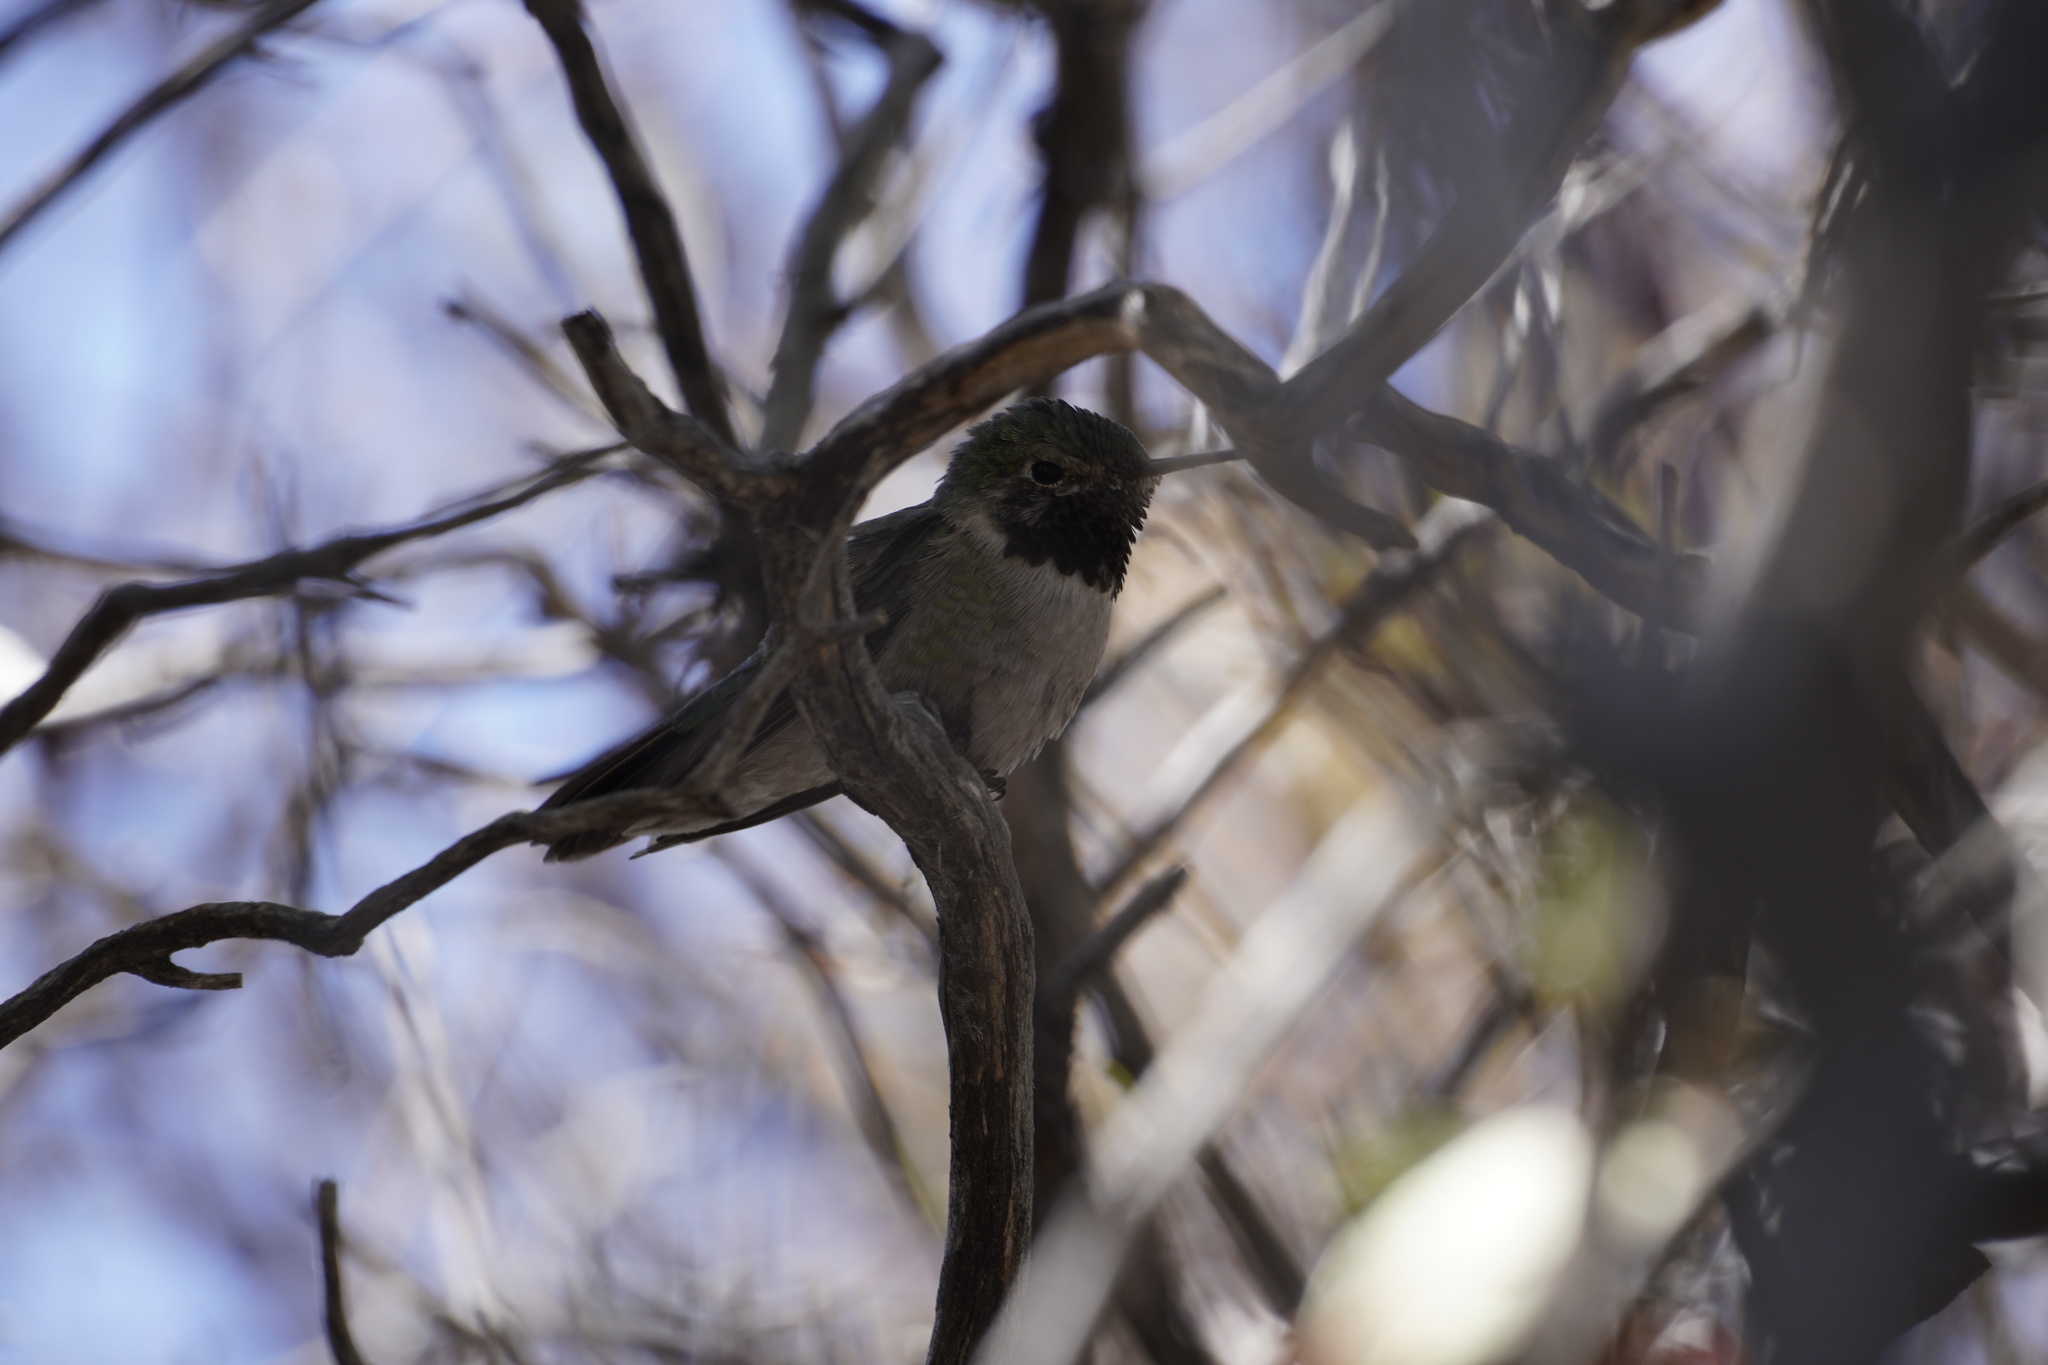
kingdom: Animalia
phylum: Chordata
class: Aves
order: Apodiformes
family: Trochilidae
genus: Selasphorus
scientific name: Selasphorus platycercus
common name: Broad-tailed hummingbird
